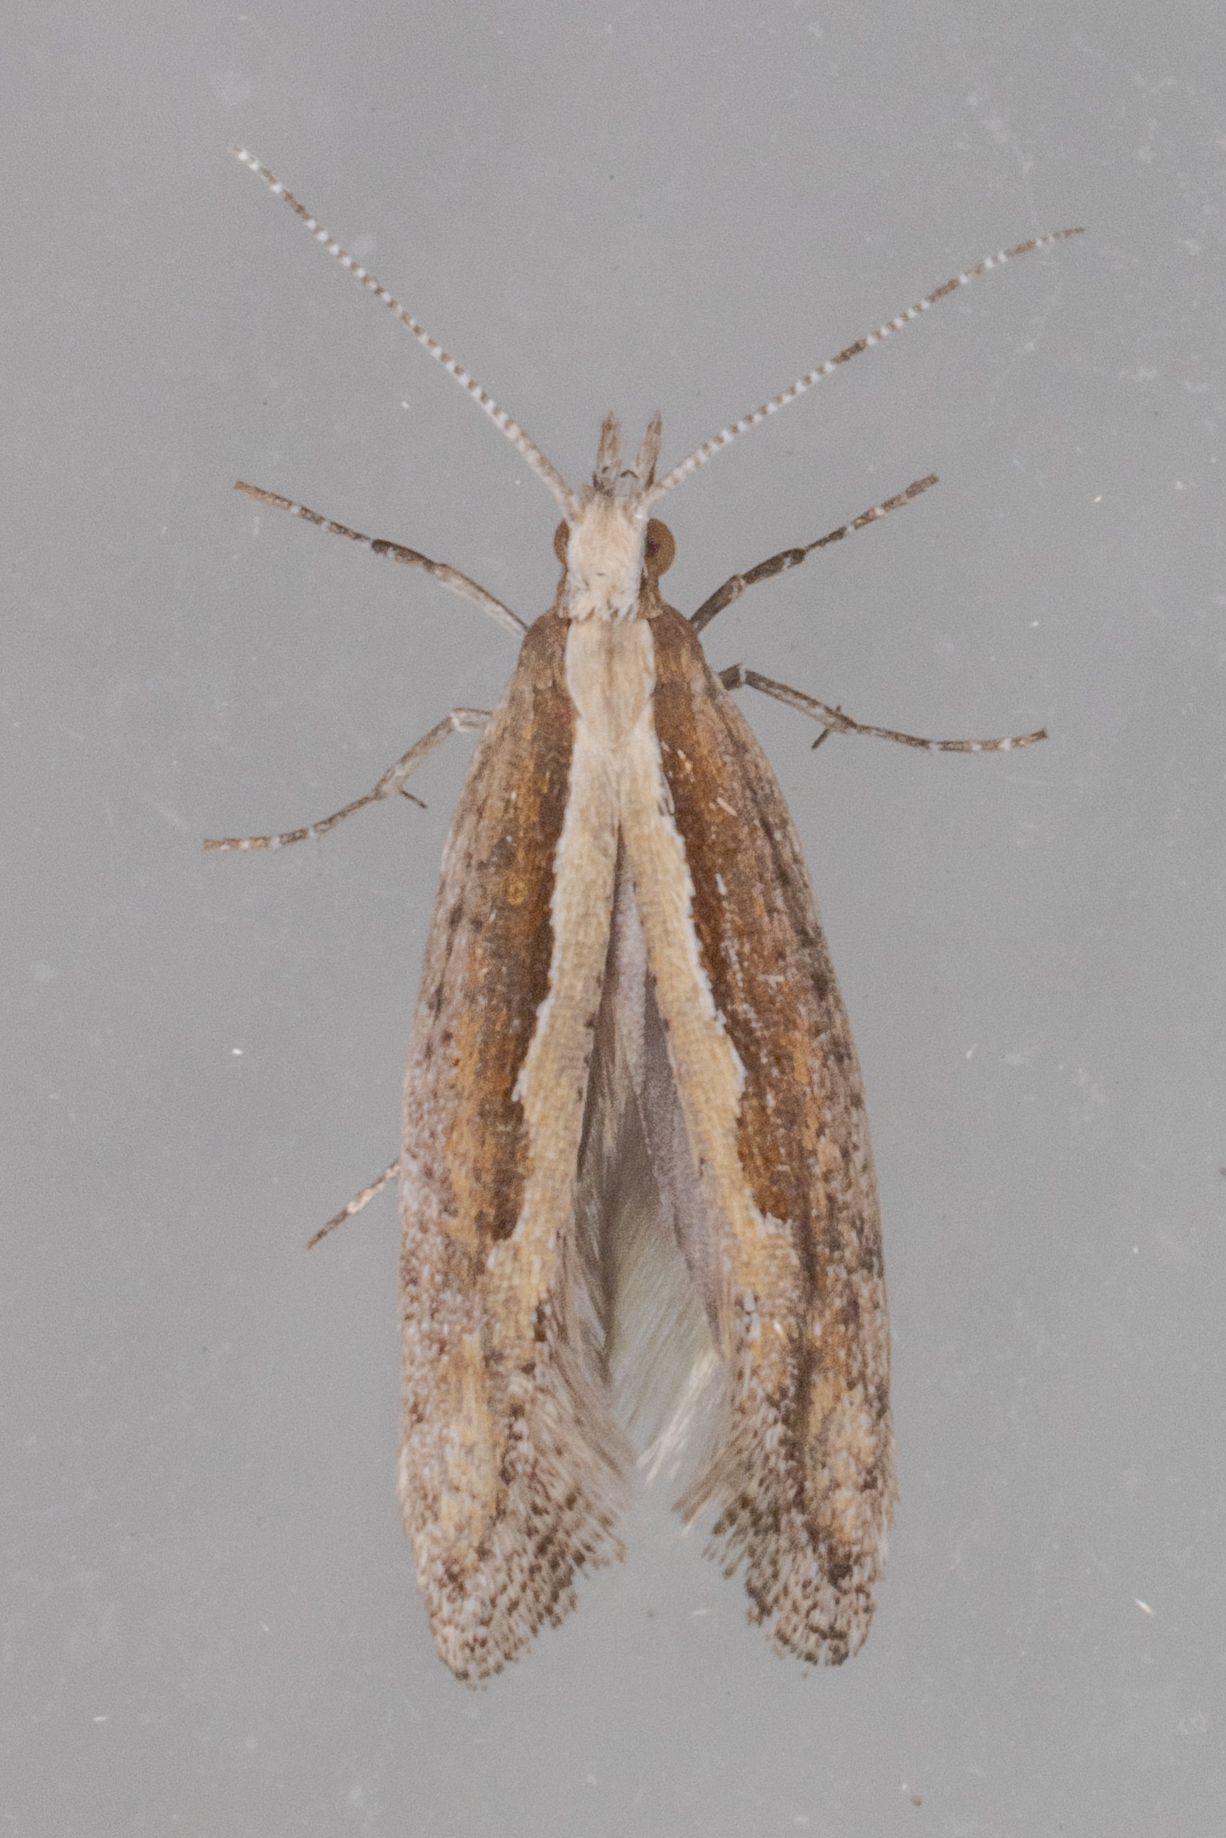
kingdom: Animalia
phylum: Arthropoda
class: Insecta
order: Lepidoptera
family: Plutellidae
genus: Plutella
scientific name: Plutella xylostella
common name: Diamond-back moth
